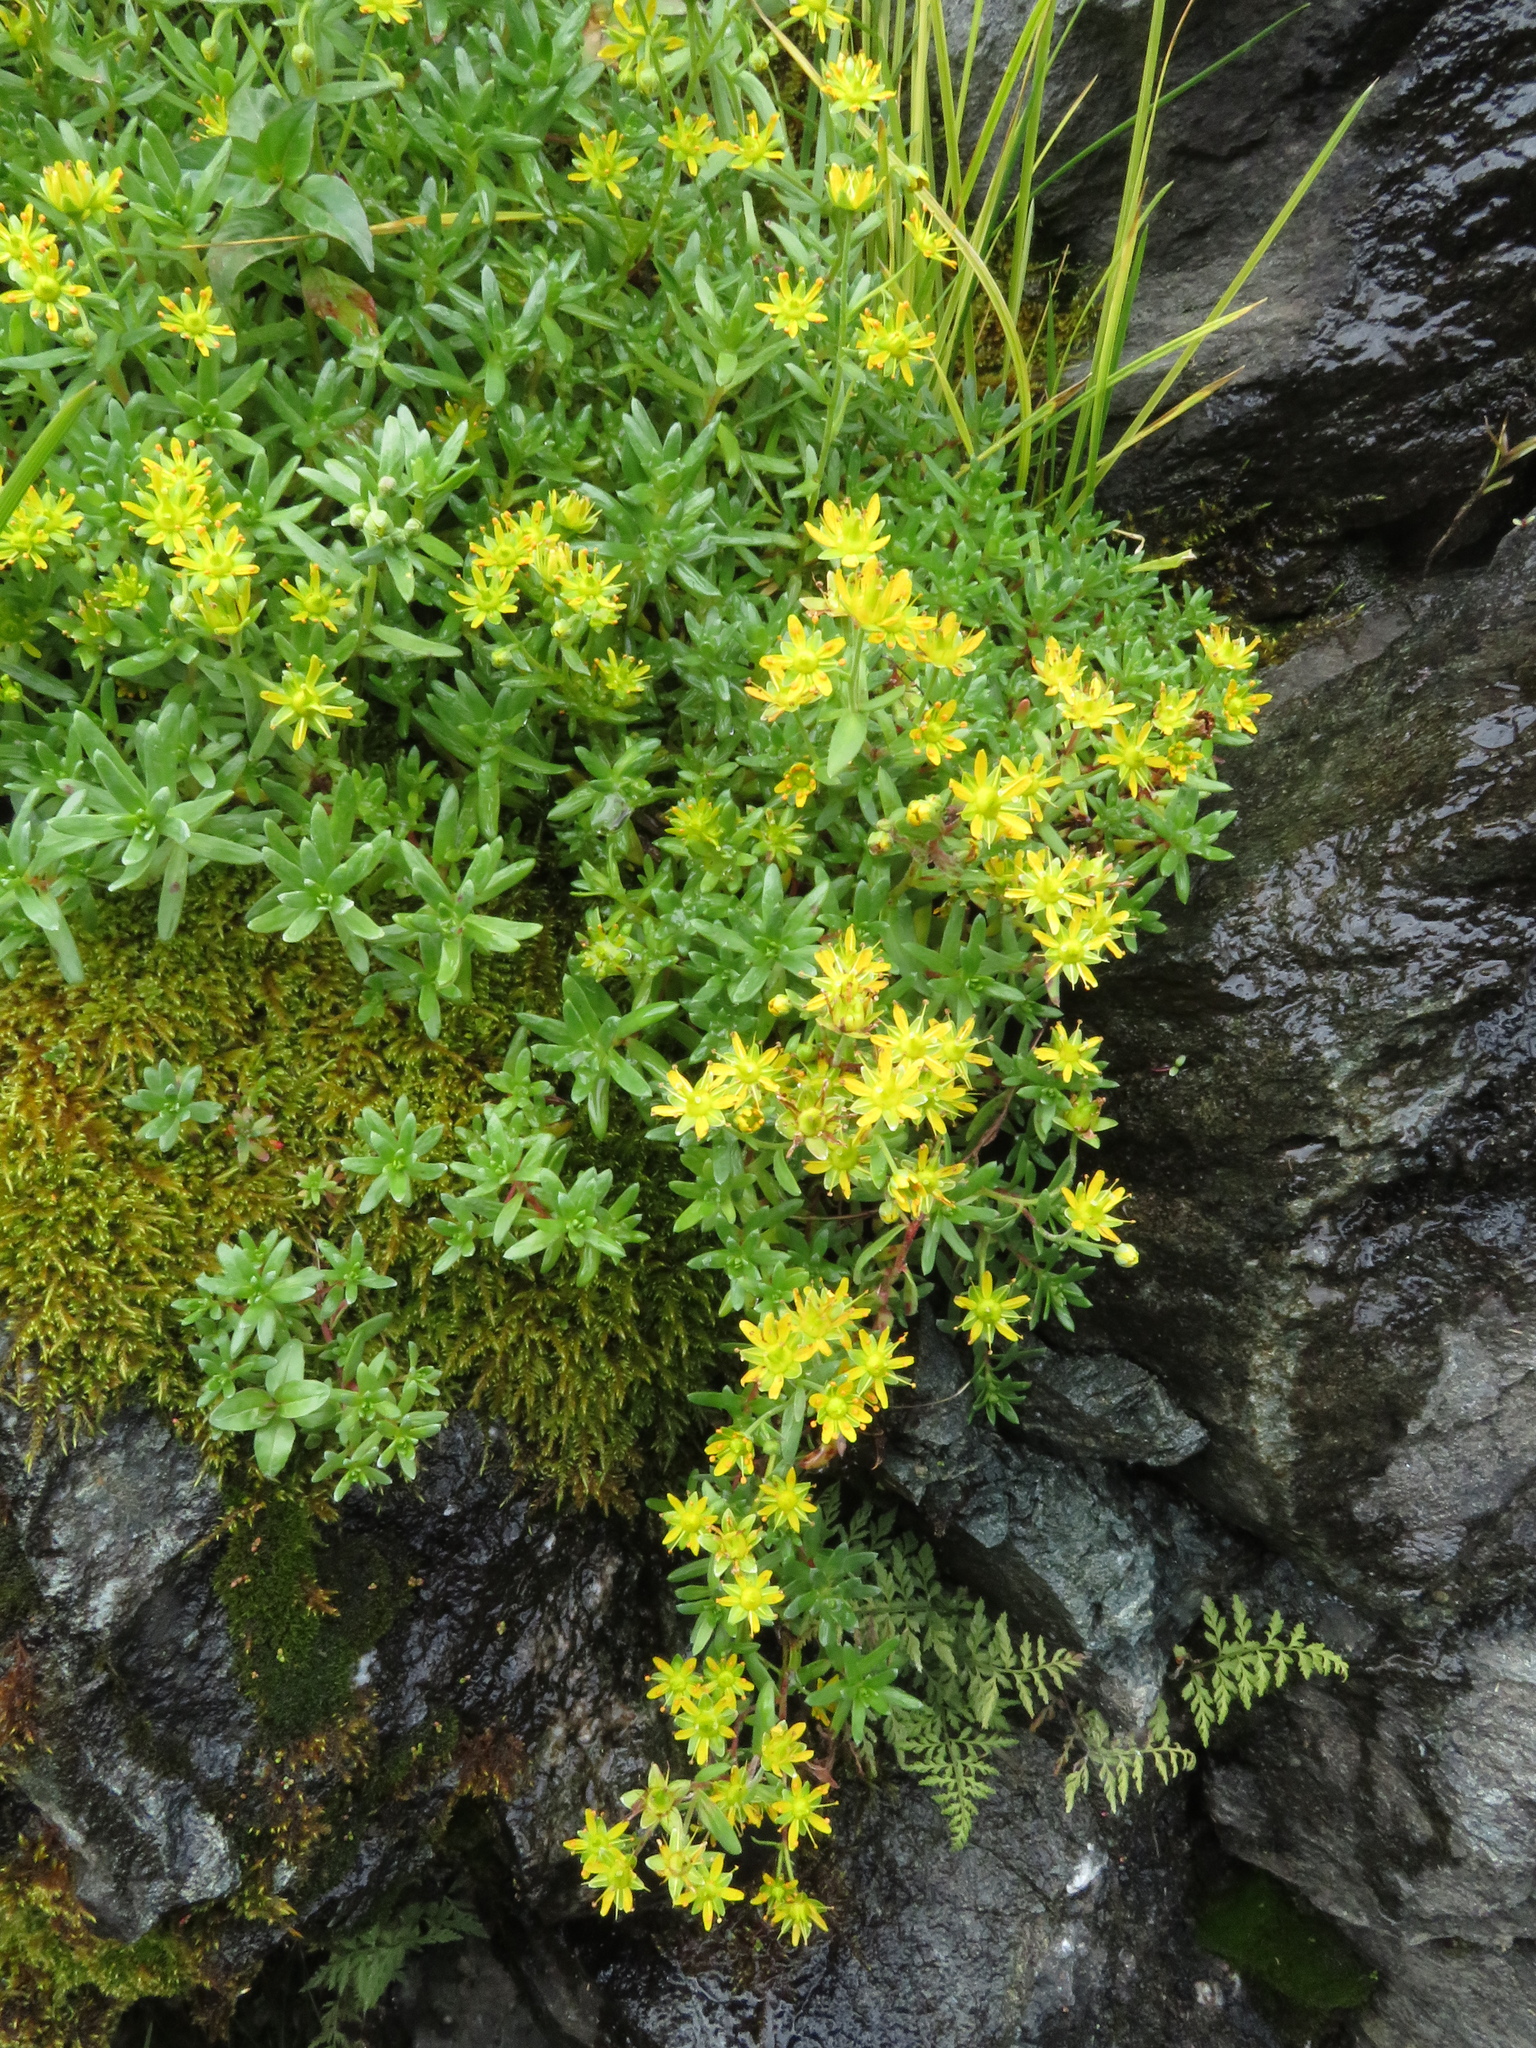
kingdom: Plantae
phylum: Tracheophyta
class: Magnoliopsida
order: Saxifragales
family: Saxifragaceae
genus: Saxifraga
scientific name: Saxifraga aizoides
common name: Yellow mountain saxifrage
